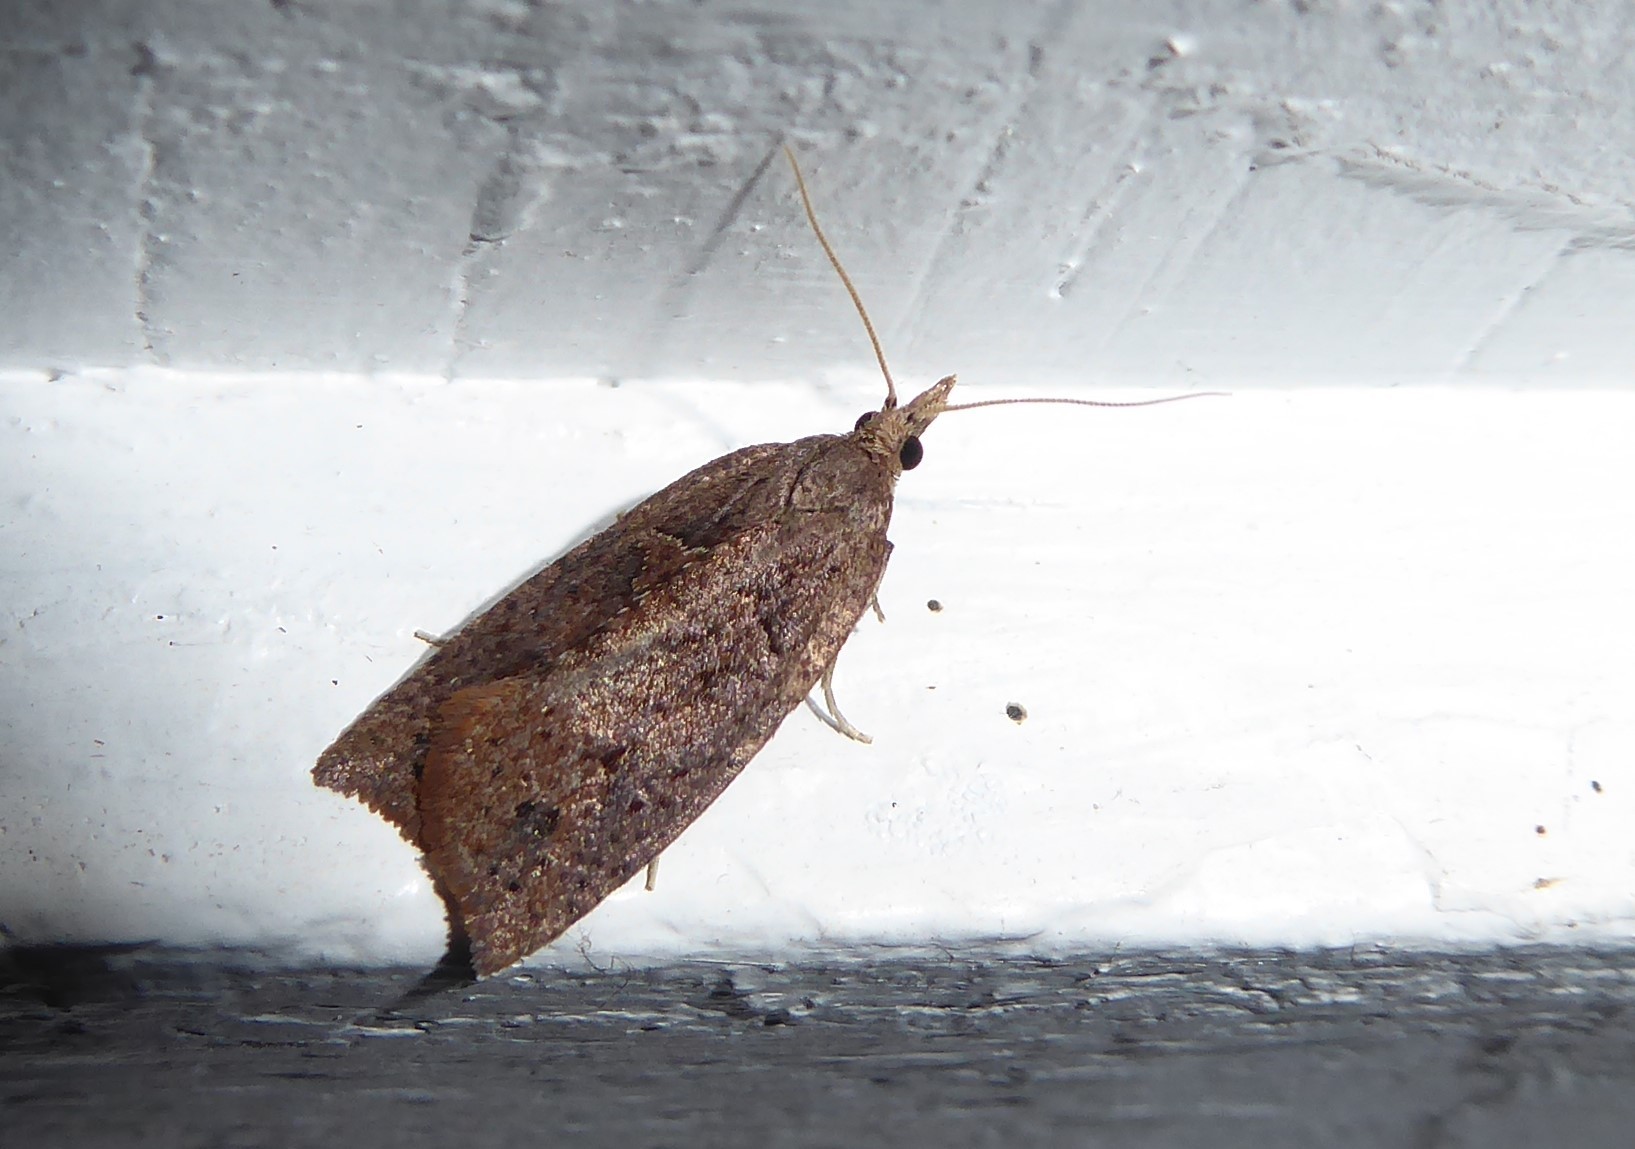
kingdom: Animalia
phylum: Arthropoda
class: Insecta
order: Lepidoptera
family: Tortricidae
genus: Planotortrix
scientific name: Planotortrix notophaea
